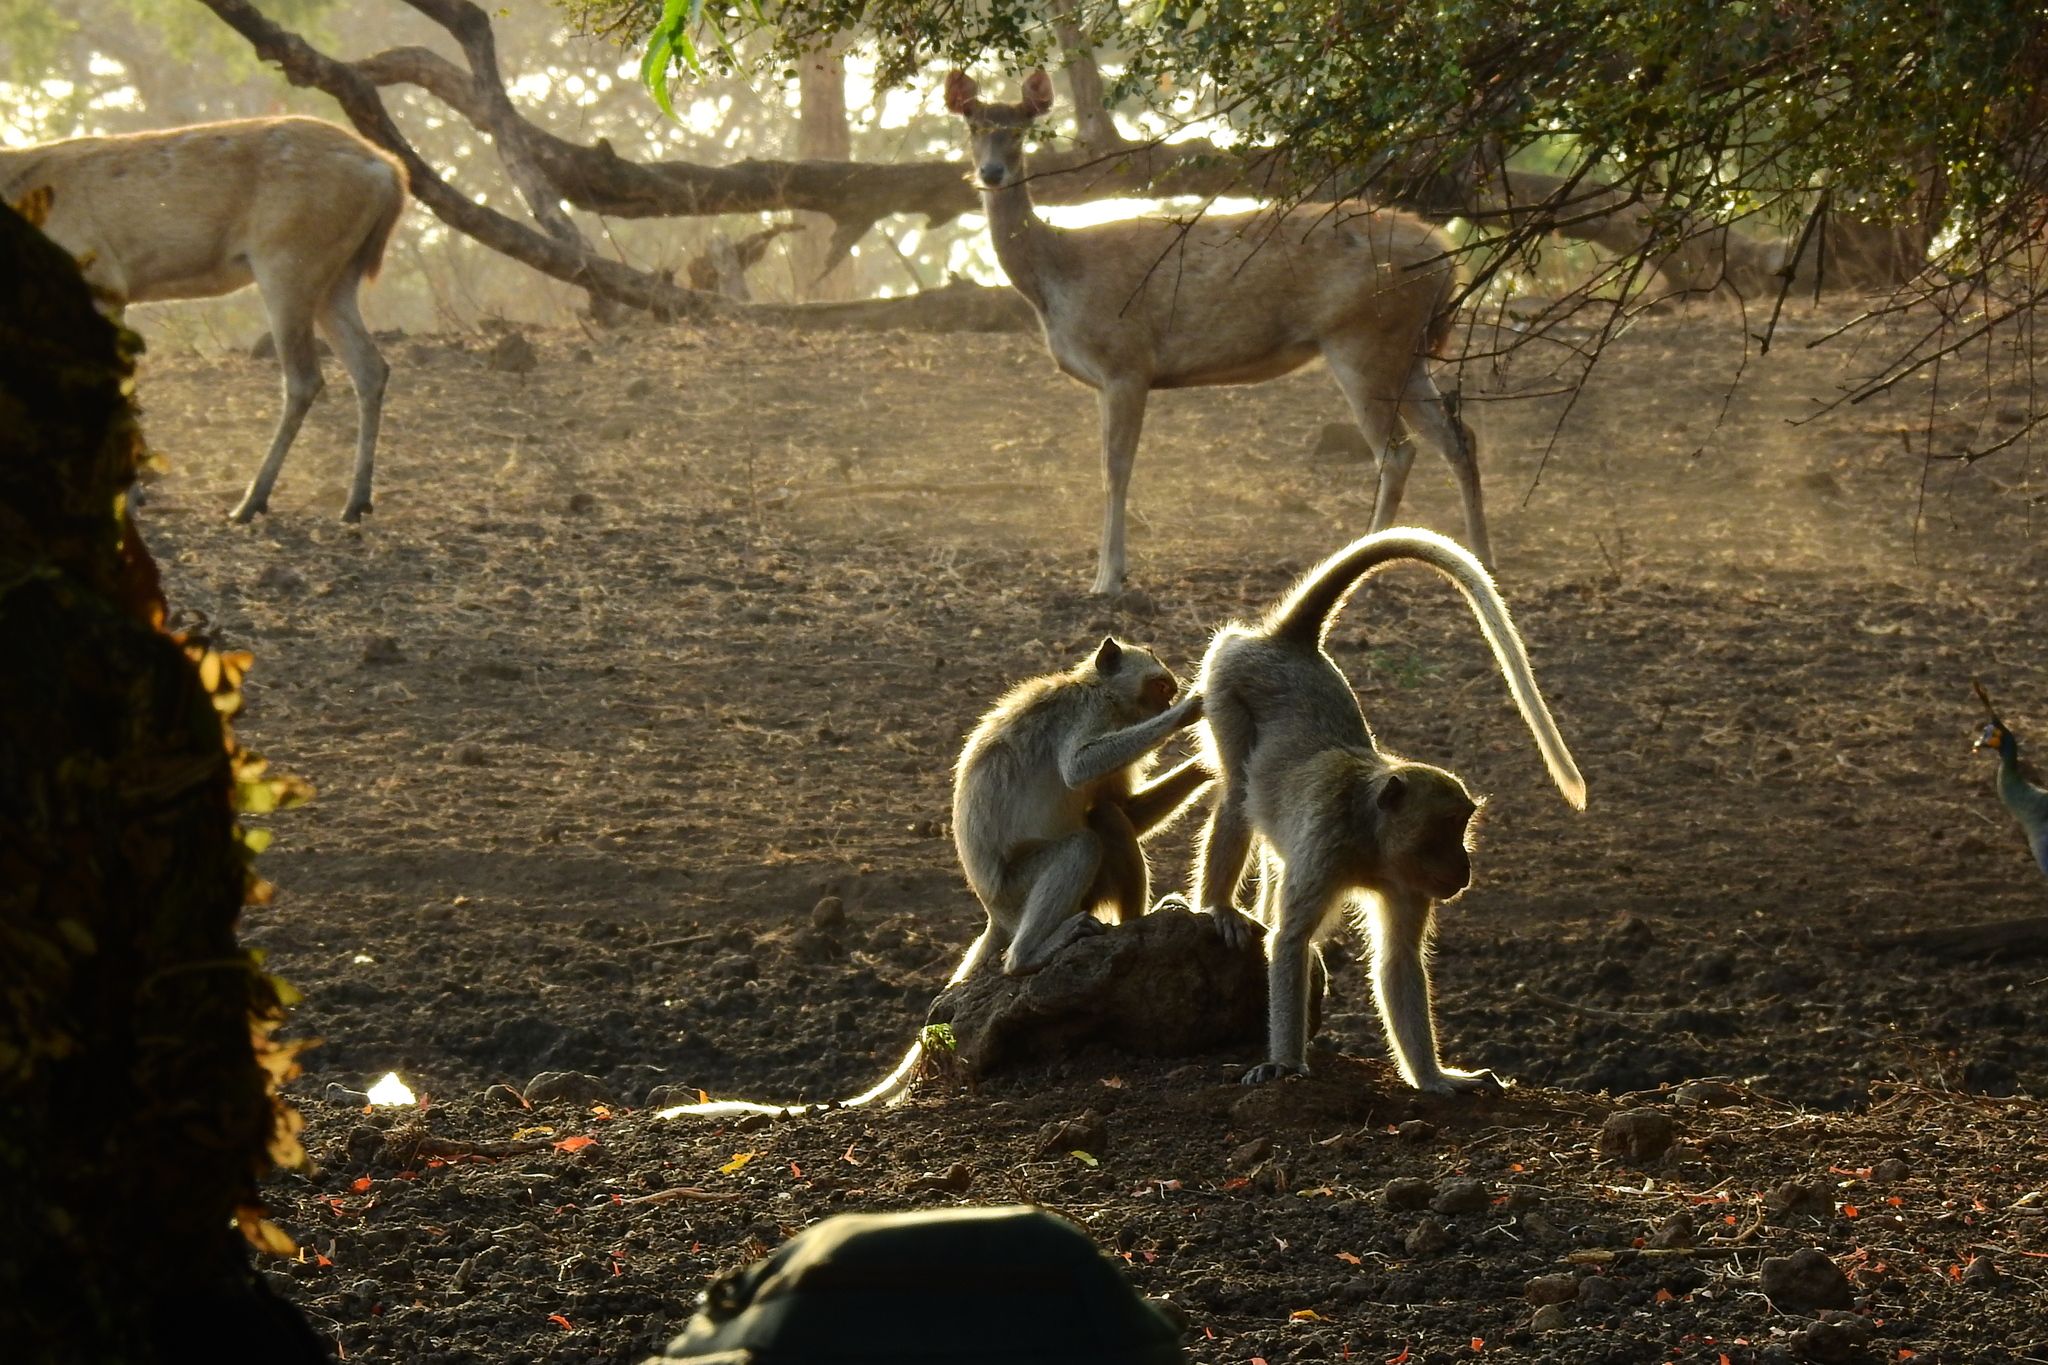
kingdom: Animalia
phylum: Chordata
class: Mammalia
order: Primates
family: Cercopithecidae
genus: Macaca
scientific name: Macaca fascicularis
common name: Crab-eating macaque
